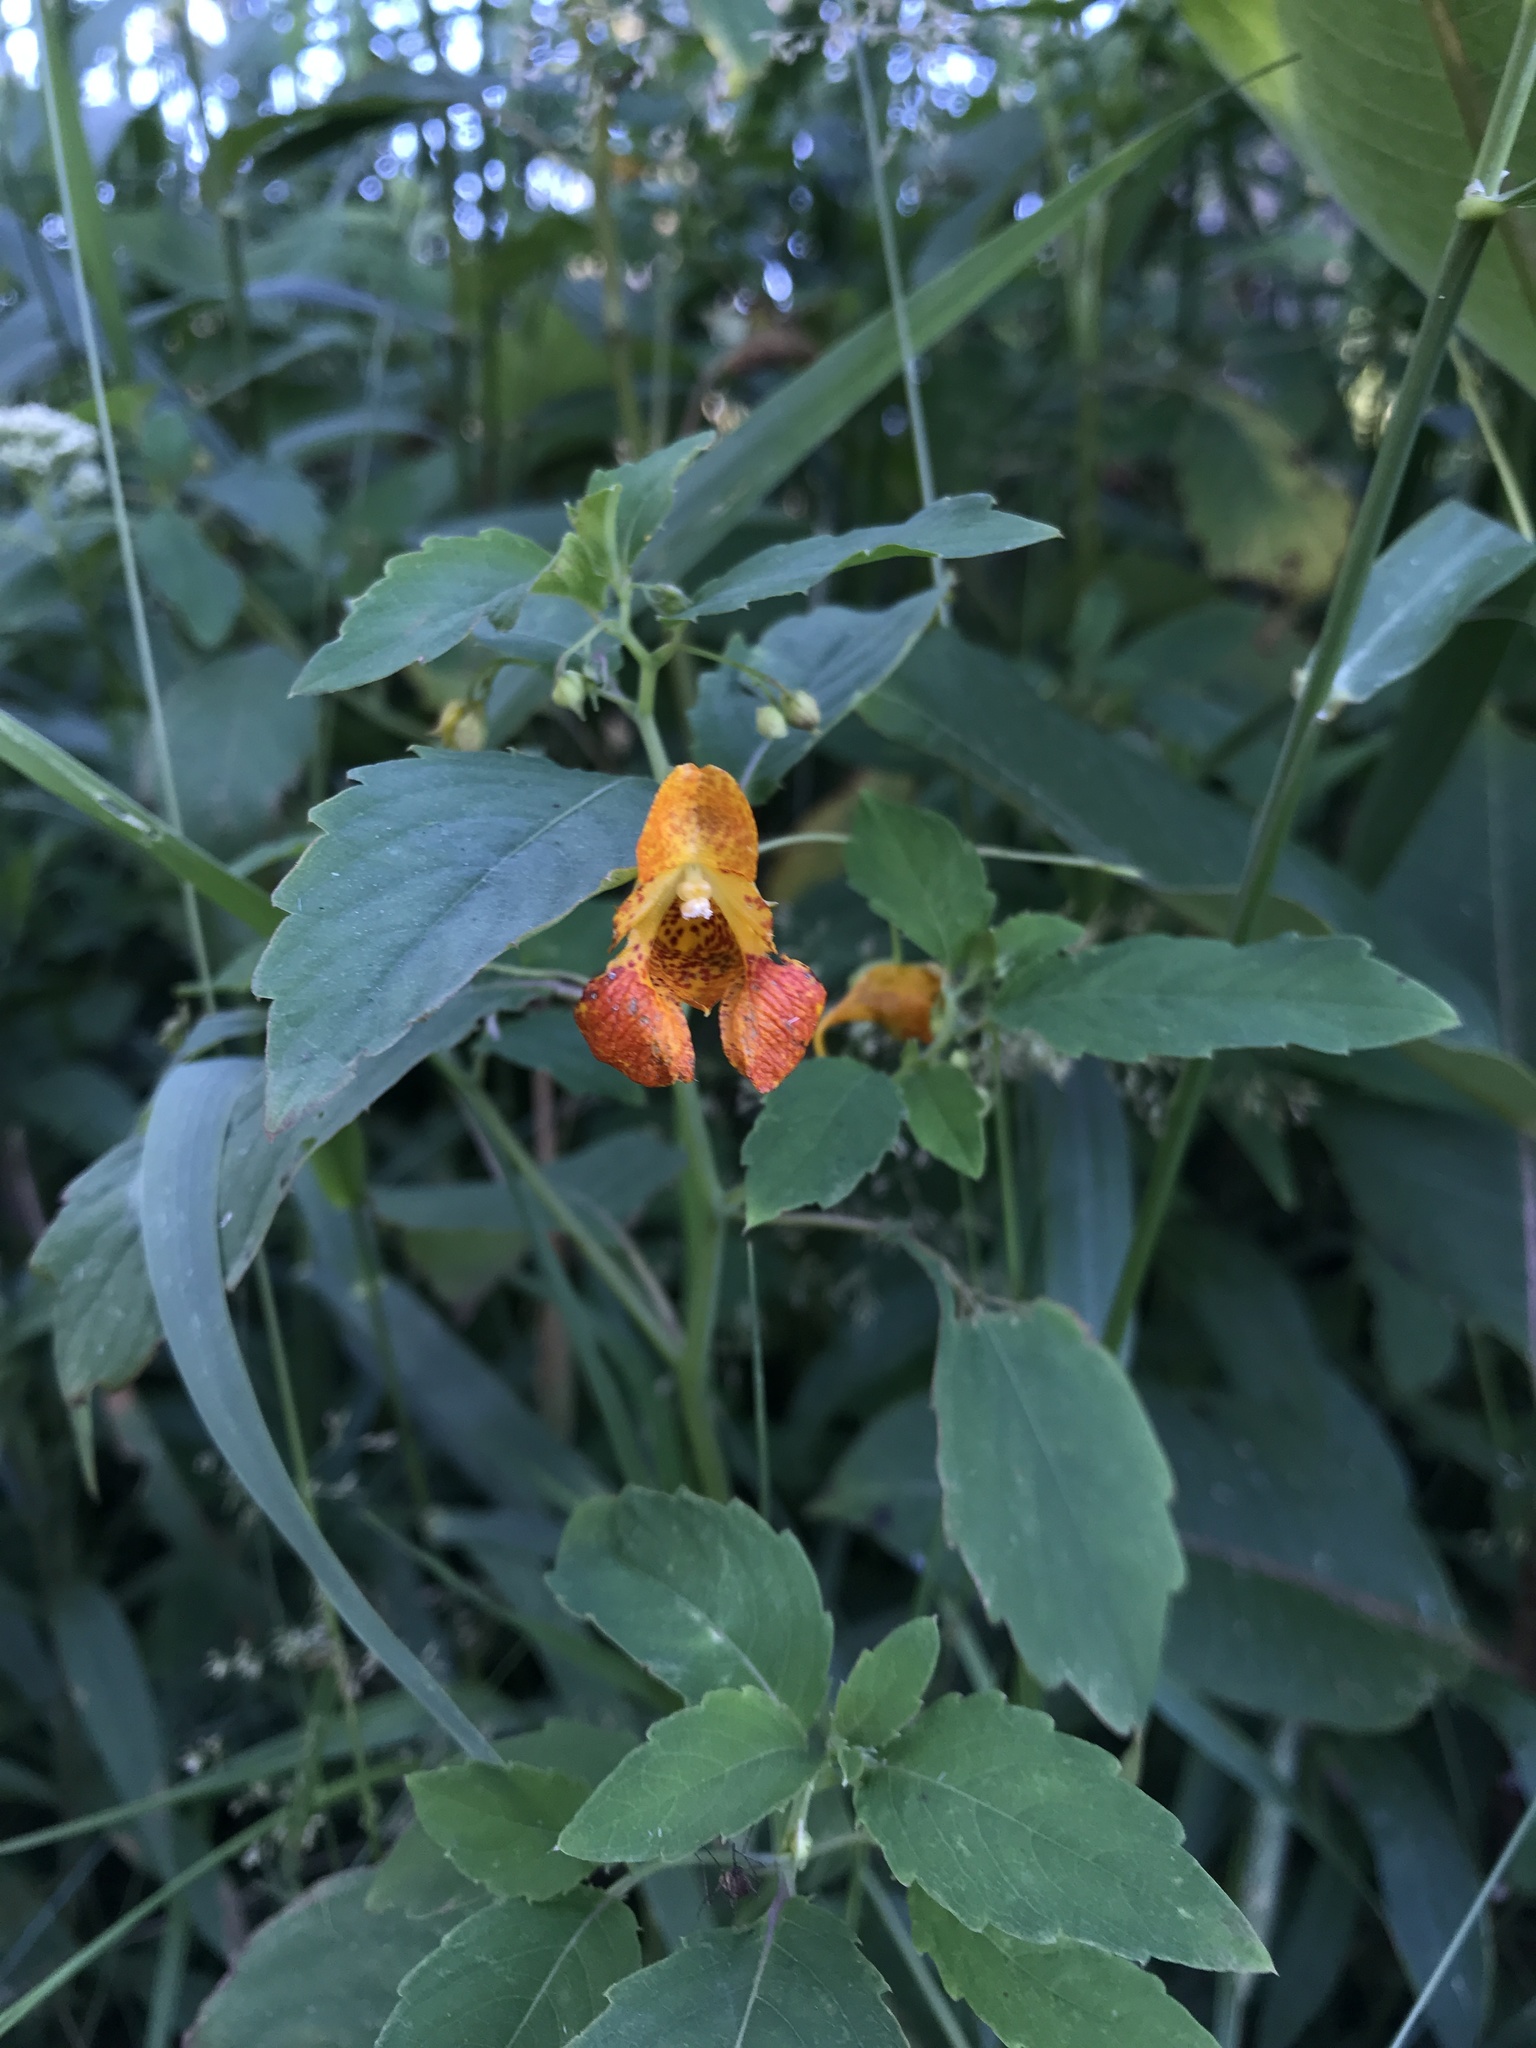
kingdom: Plantae
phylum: Tracheophyta
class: Magnoliopsida
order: Ericales
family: Balsaminaceae
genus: Impatiens
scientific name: Impatiens capensis
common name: Orange balsam
